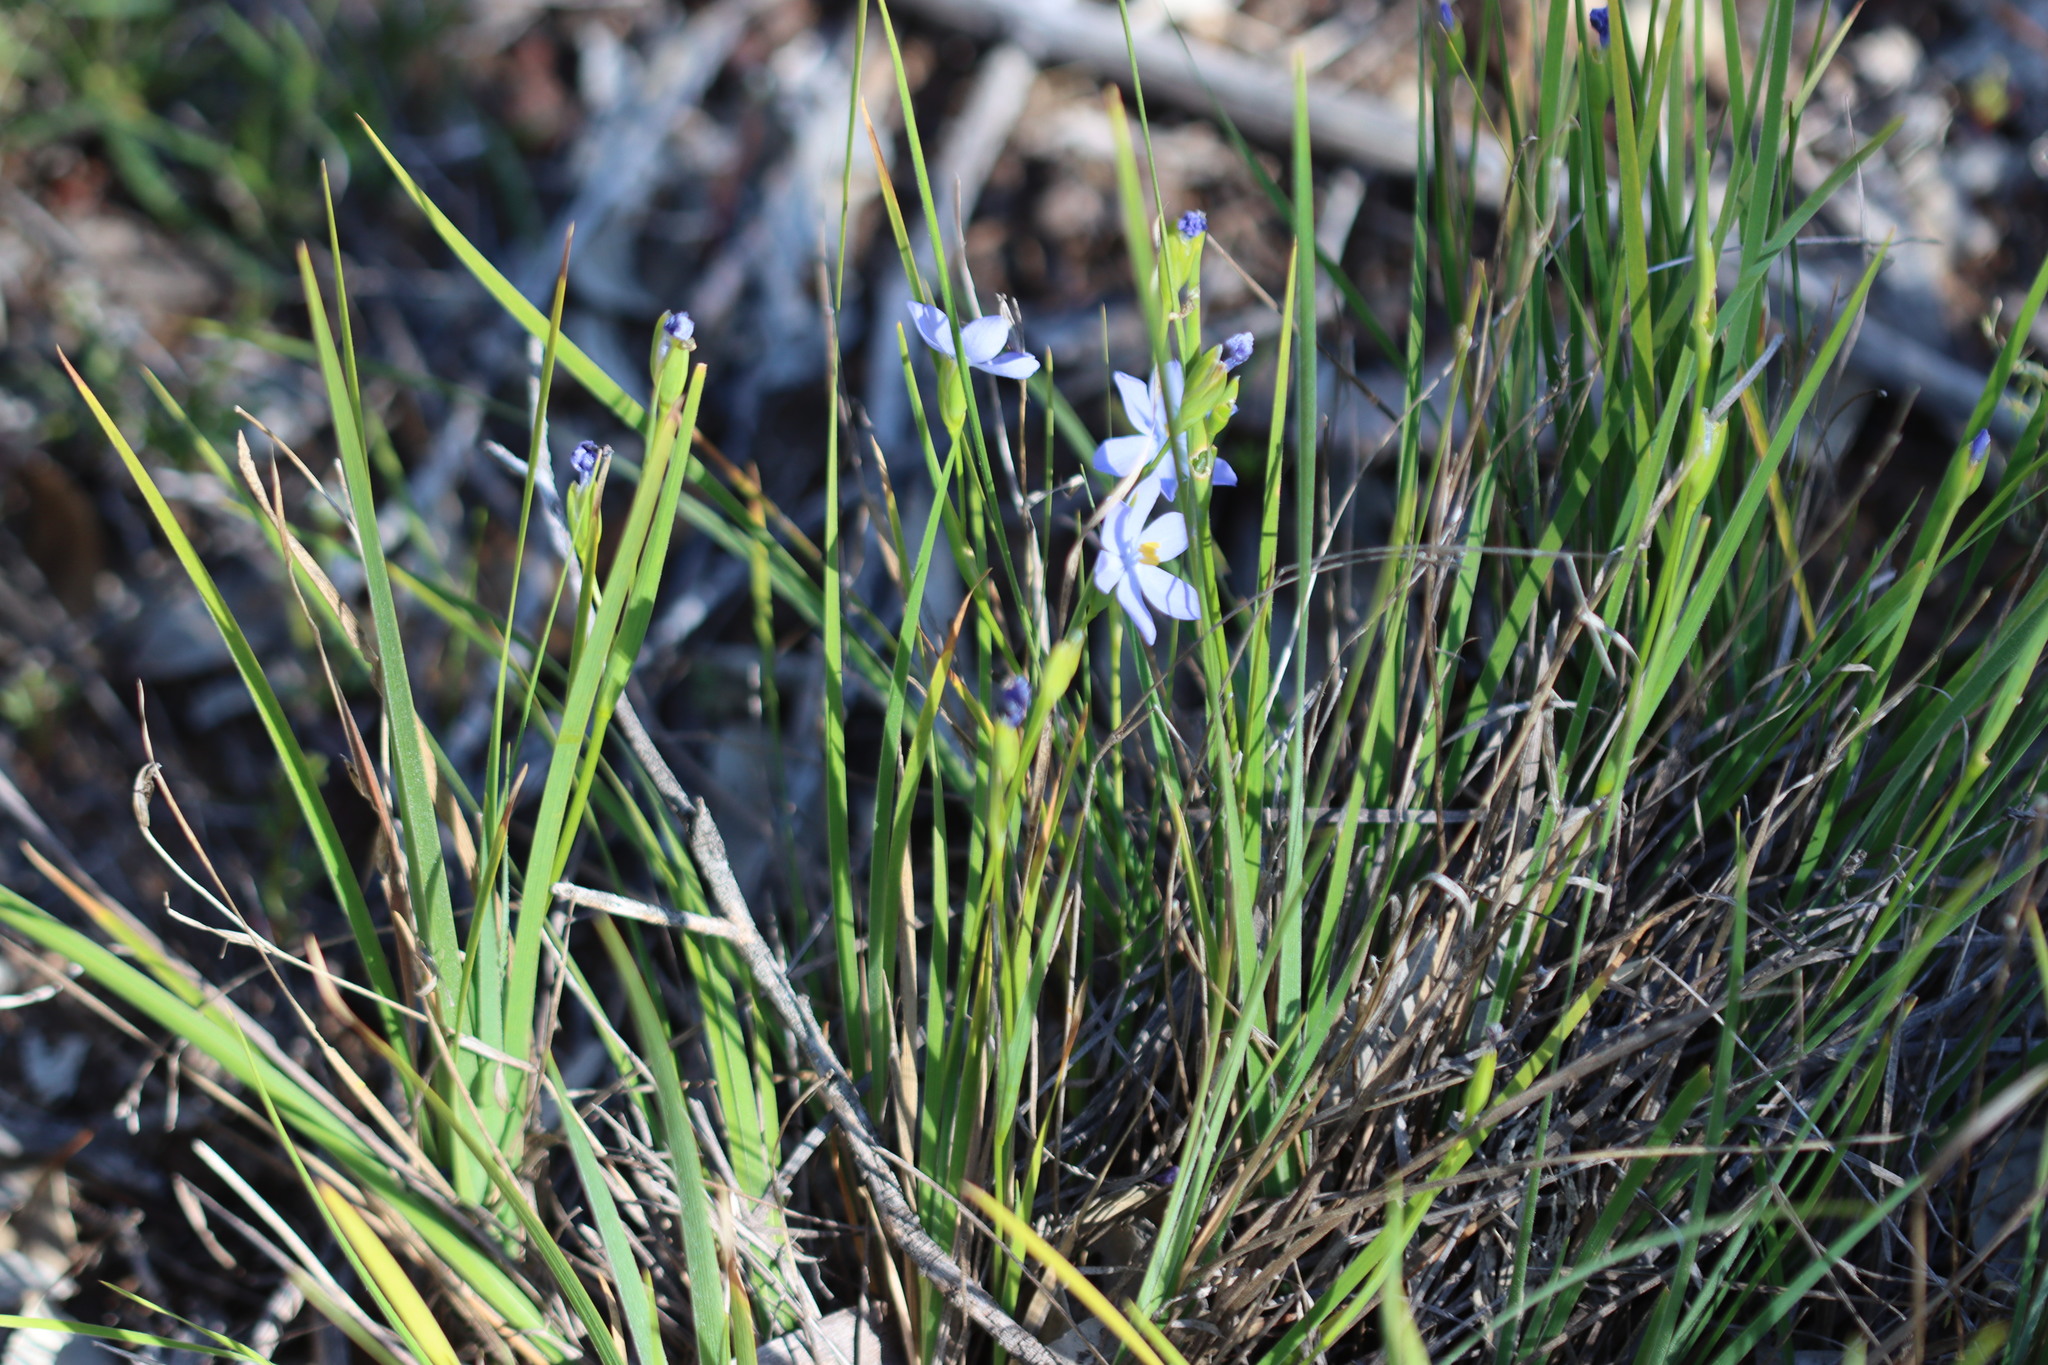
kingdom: Plantae
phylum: Tracheophyta
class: Liliopsida
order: Asparagales
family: Iridaceae
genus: Orthrosanthus
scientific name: Orthrosanthus laxus
